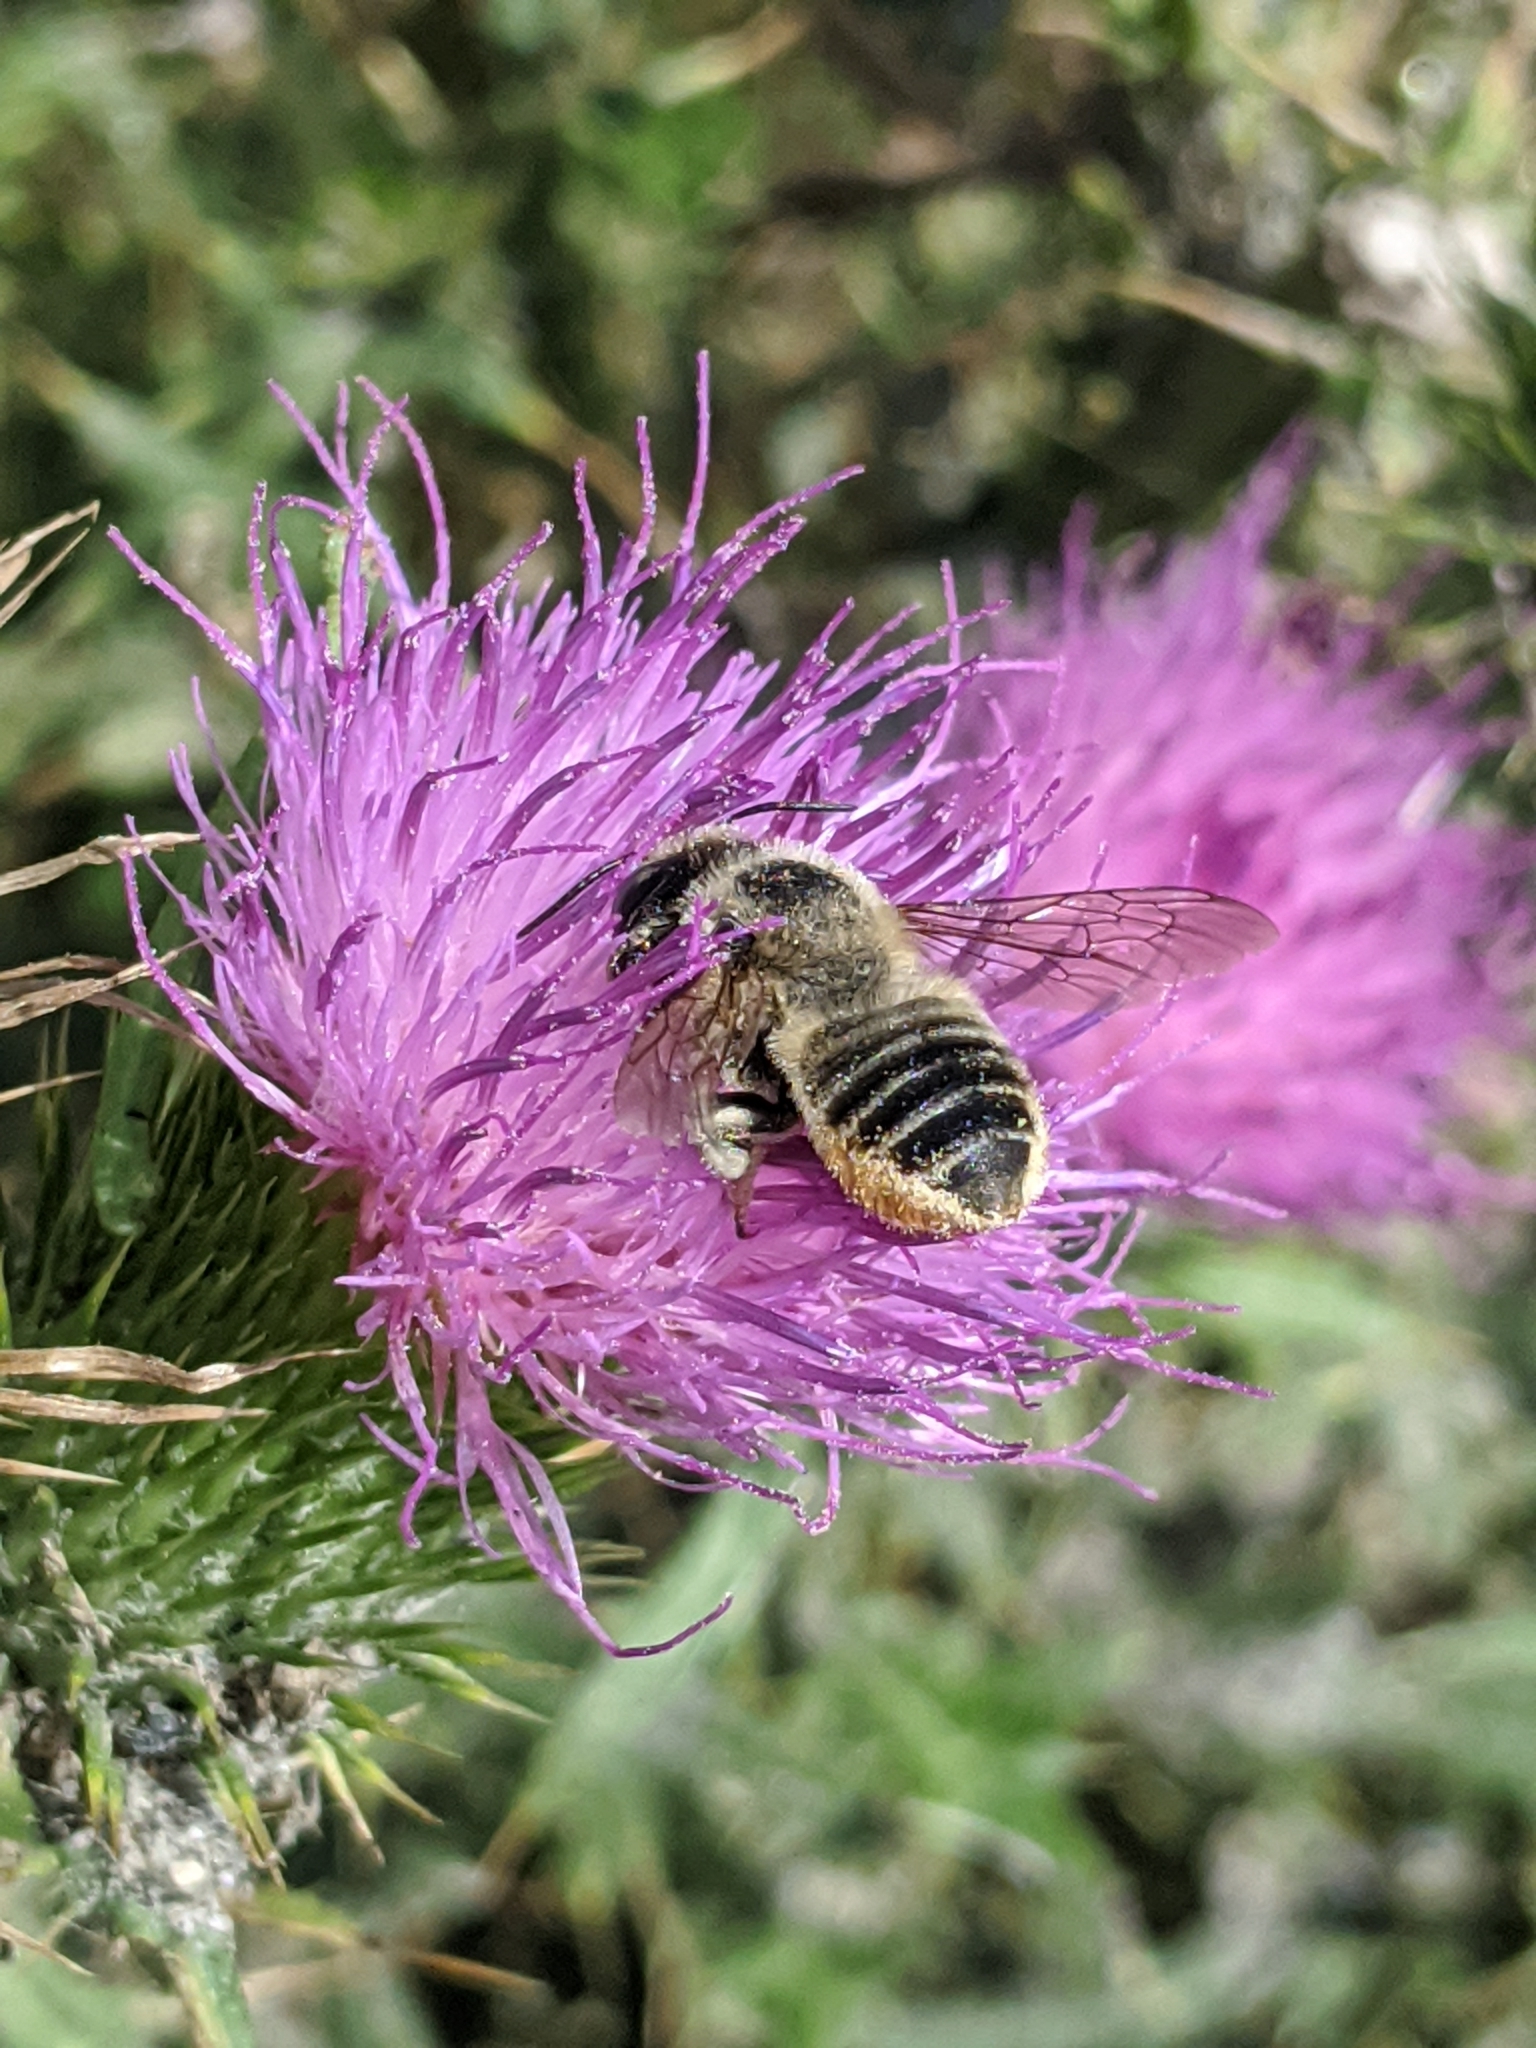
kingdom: Animalia
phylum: Arthropoda
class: Insecta
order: Hymenoptera
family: Megachilidae
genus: Megachile
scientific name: Megachile latimanus
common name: Leafcutting bee
